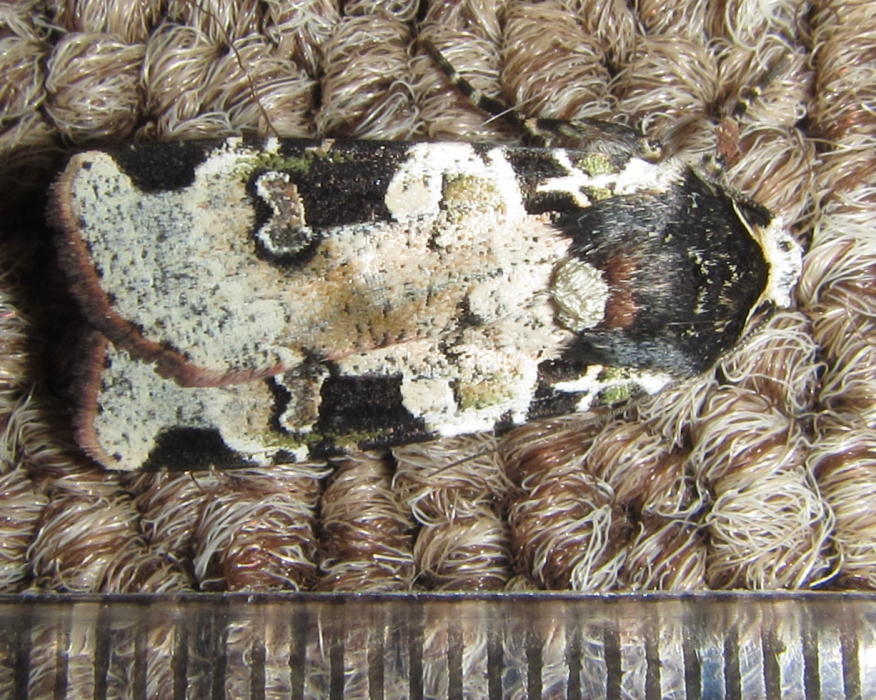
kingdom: Animalia
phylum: Arthropoda
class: Insecta
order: Lepidoptera
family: Noctuidae
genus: Mentaxya
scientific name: Mentaxya albifrons
